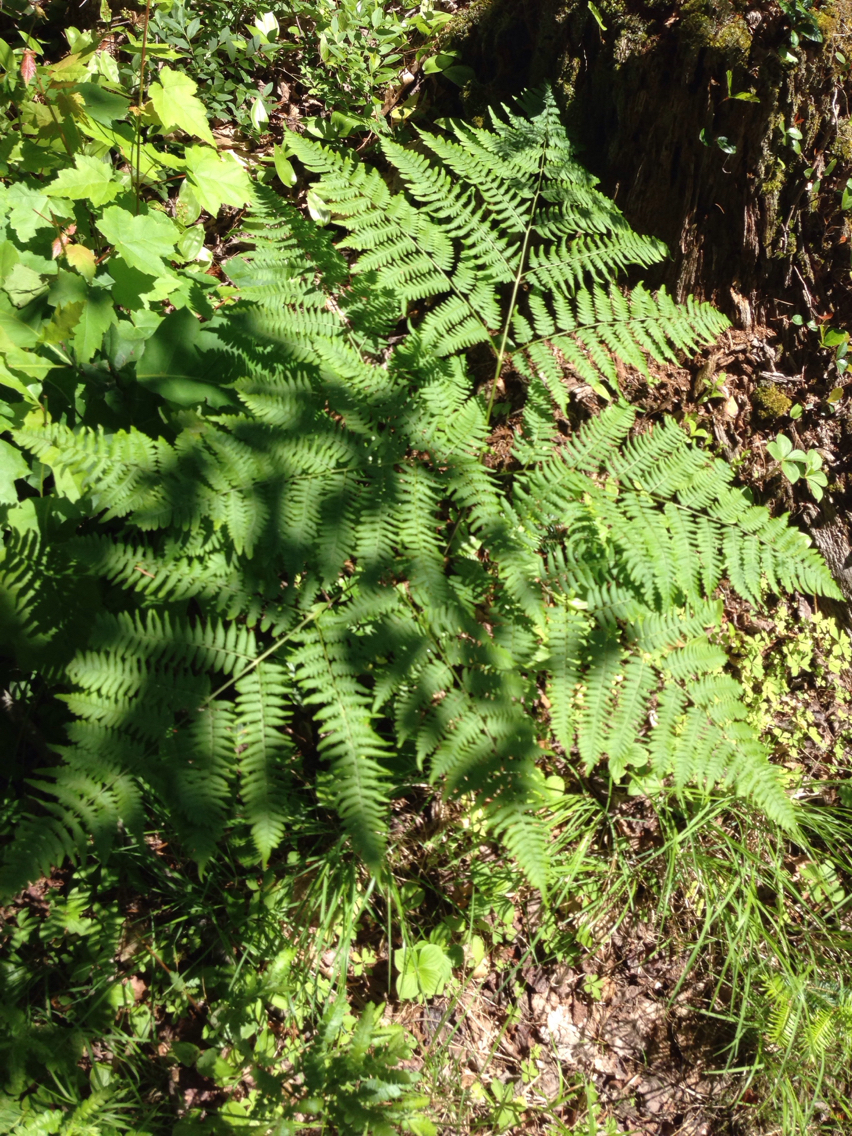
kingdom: Plantae
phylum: Tracheophyta
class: Polypodiopsida
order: Polypodiales
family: Dennstaedtiaceae
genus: Pteridium
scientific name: Pteridium aquilinum
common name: Bracken
